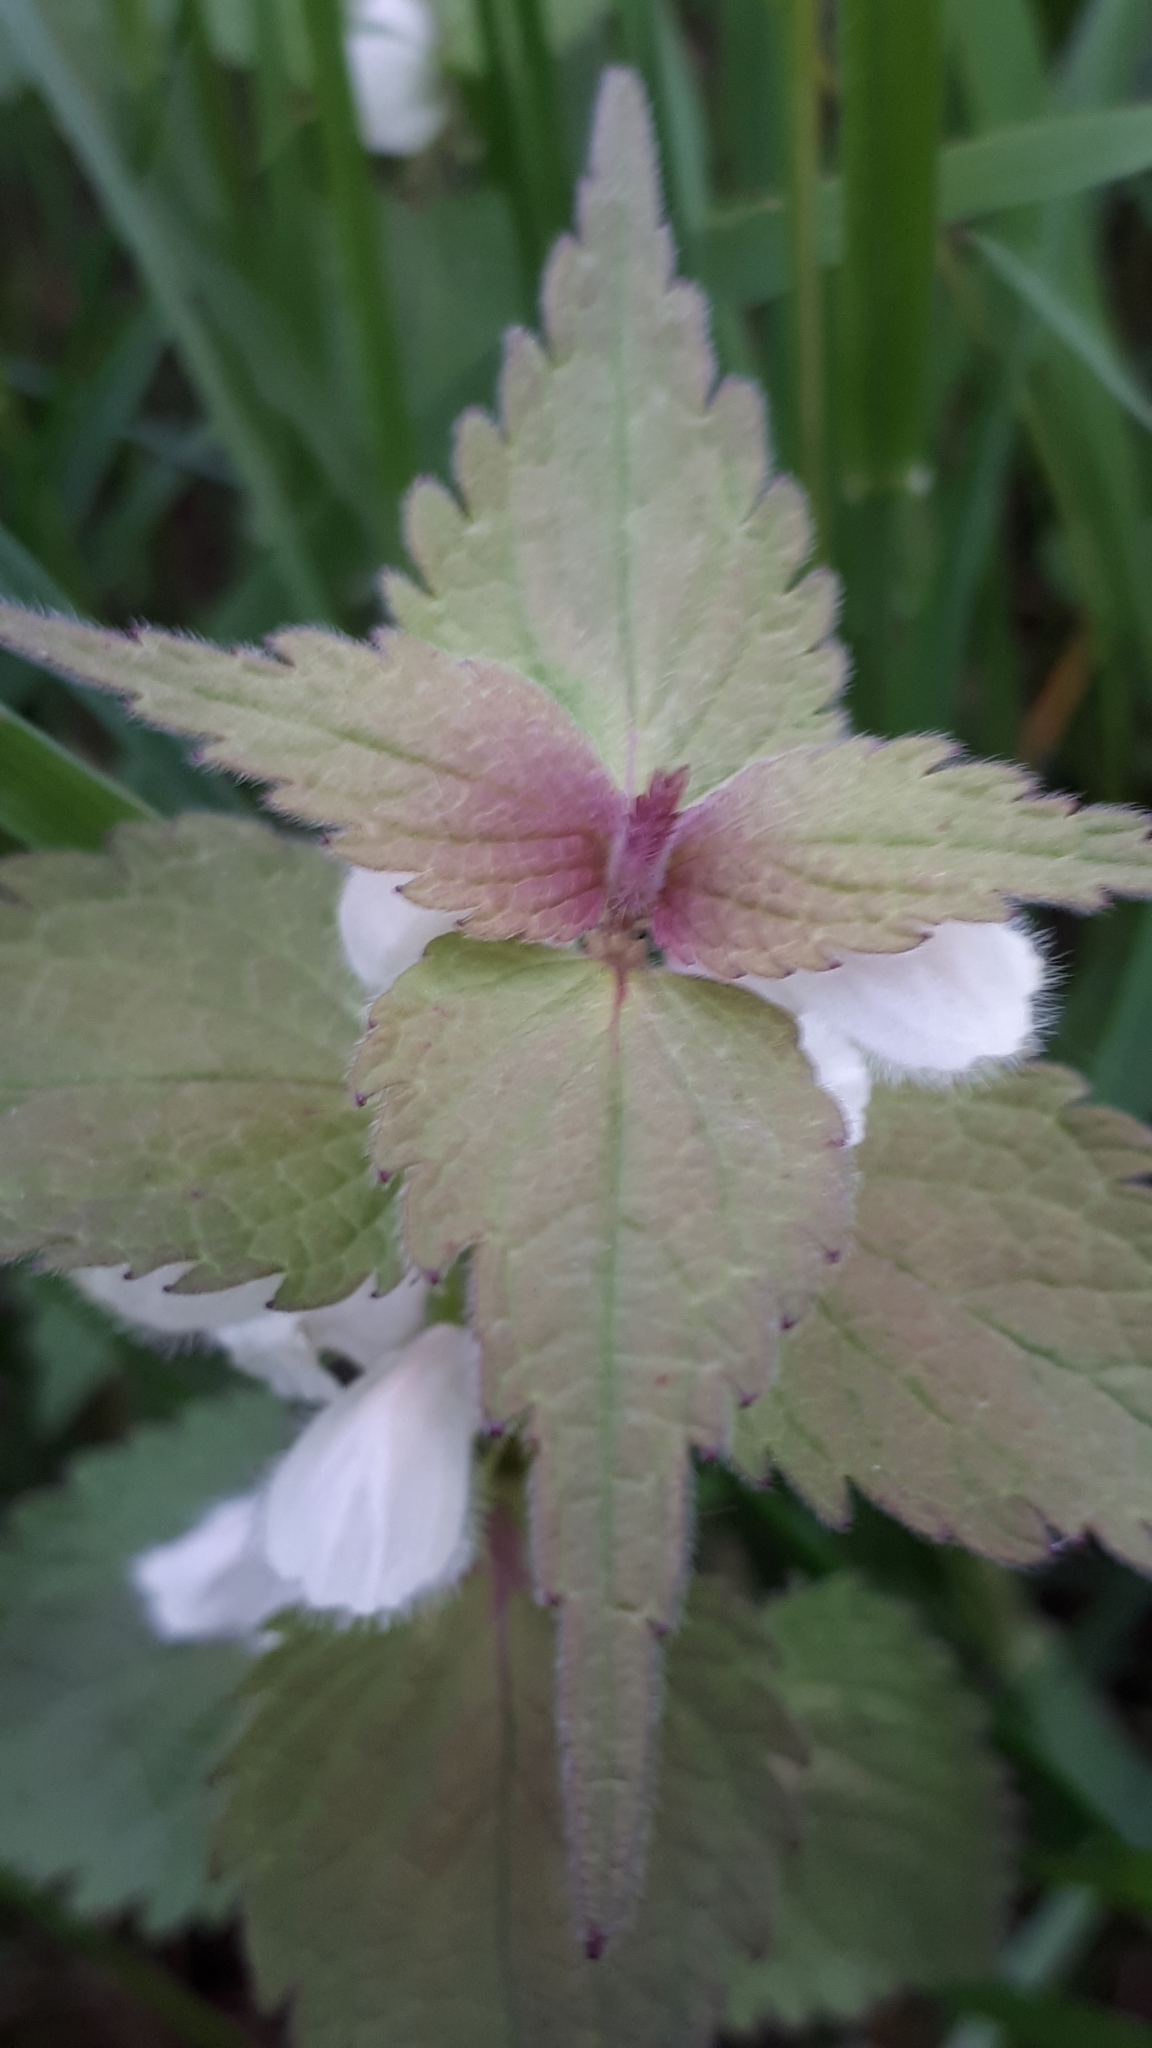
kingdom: Plantae
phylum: Tracheophyta
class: Magnoliopsida
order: Lamiales
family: Lamiaceae
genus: Lamium
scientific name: Lamium album
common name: White dead-nettle
